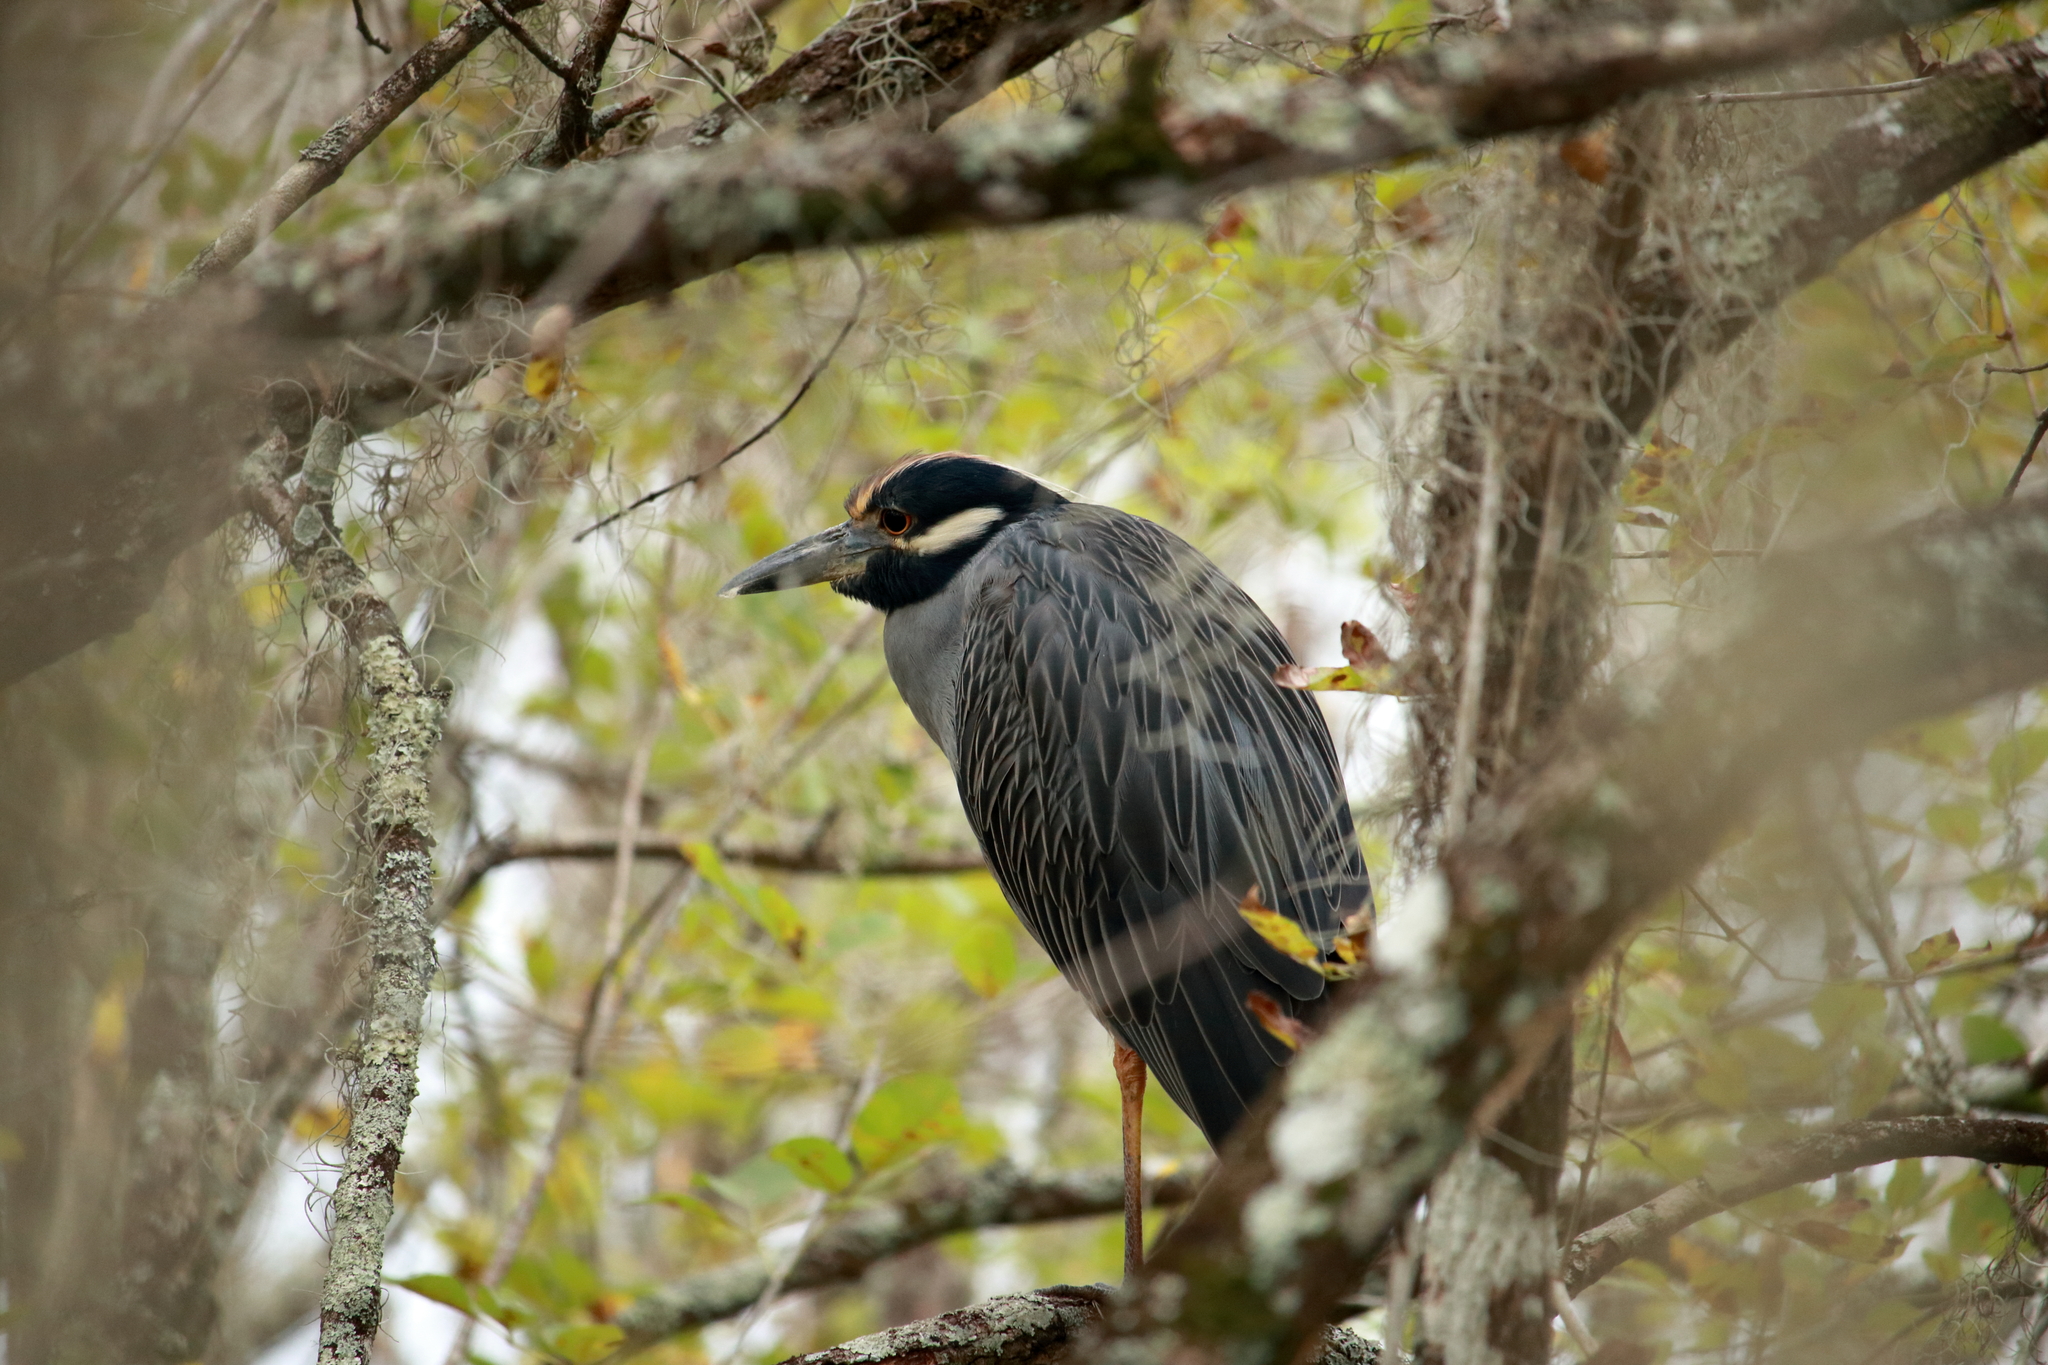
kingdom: Animalia
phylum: Chordata
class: Aves
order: Pelecaniformes
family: Ardeidae
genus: Nyctanassa
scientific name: Nyctanassa violacea
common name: Yellow-crowned night heron
